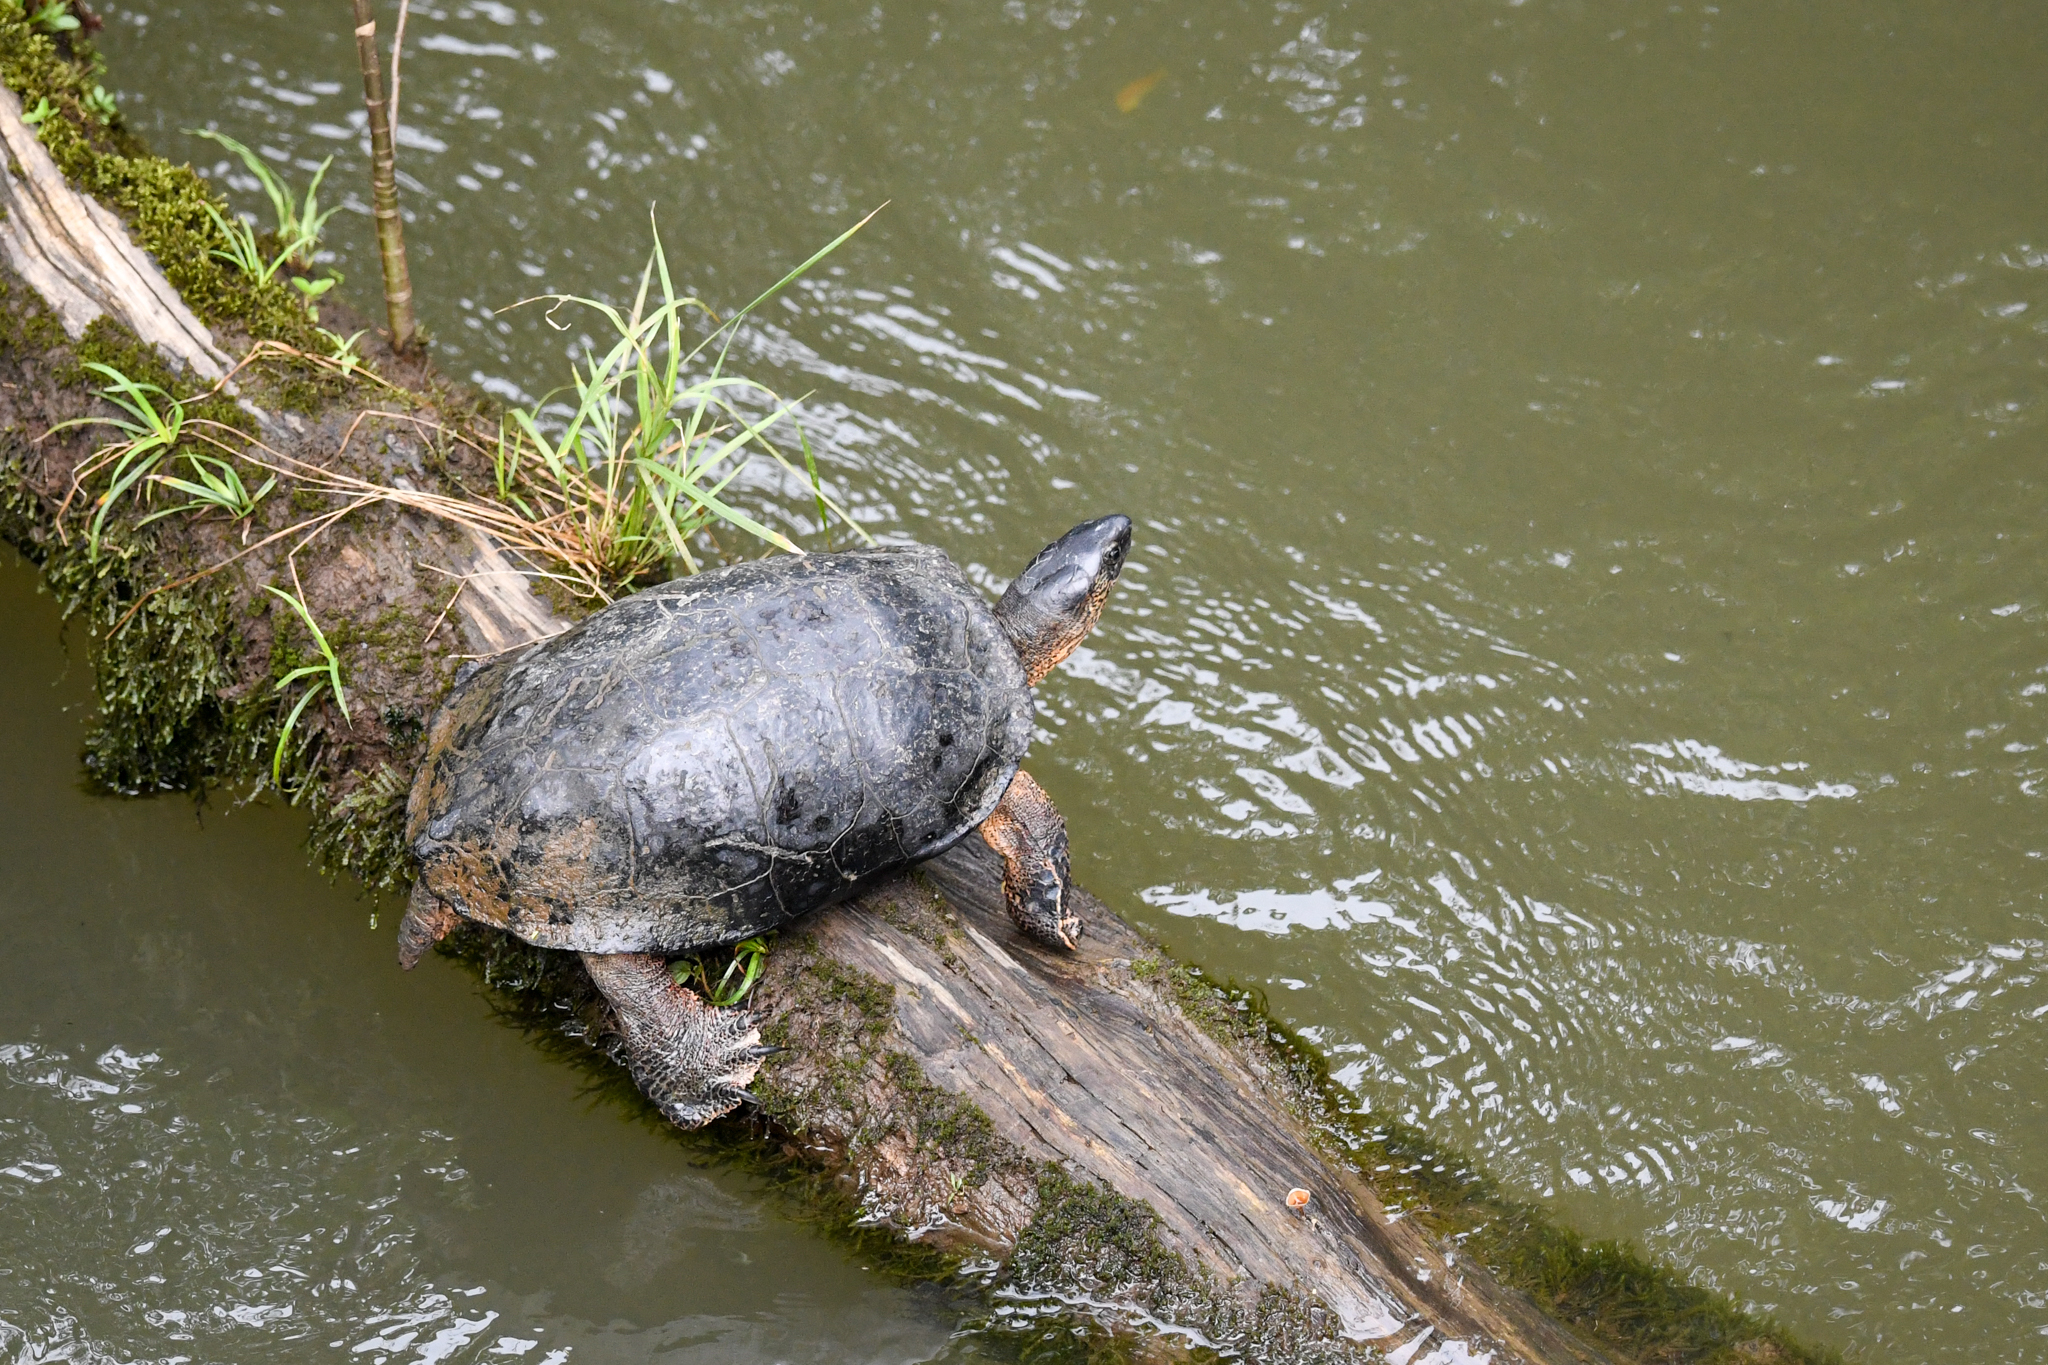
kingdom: Animalia
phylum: Chordata
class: Testudines
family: Geoemydidae
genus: Rhinoclemmys
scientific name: Rhinoclemmys funerea
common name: Black wood turtle
